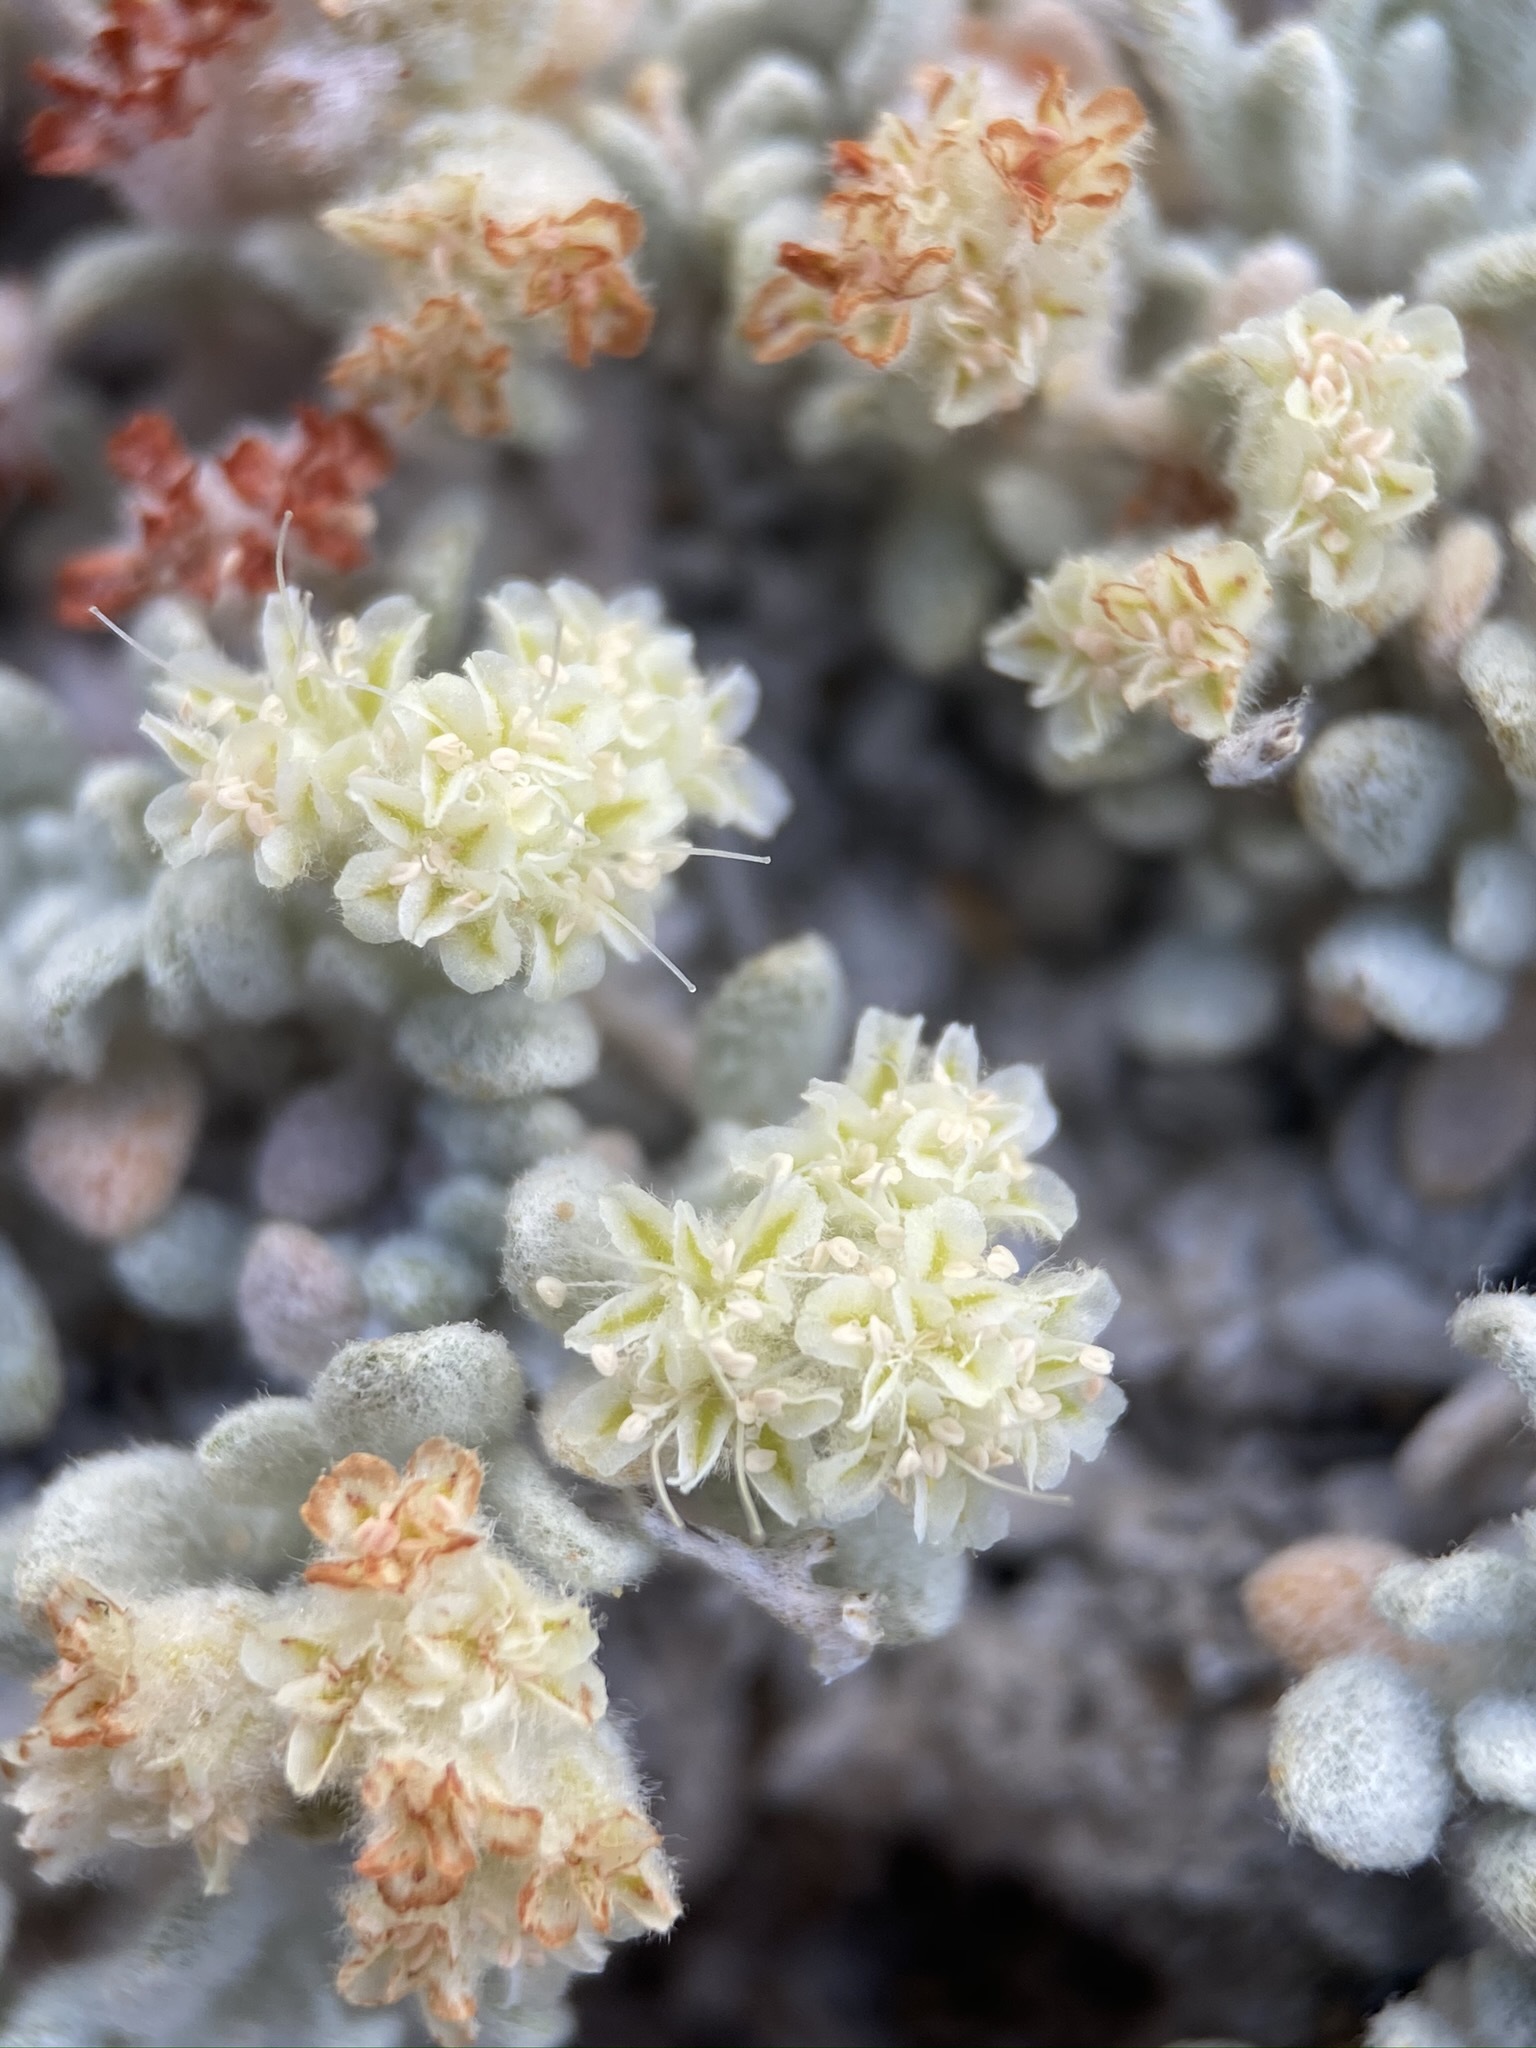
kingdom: Plantae
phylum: Tracheophyta
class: Magnoliopsida
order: Caryophyllales
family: Polygonaceae
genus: Eriogonum
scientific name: Eriogonum shockleyi
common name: Shockley's wild buckwheat
